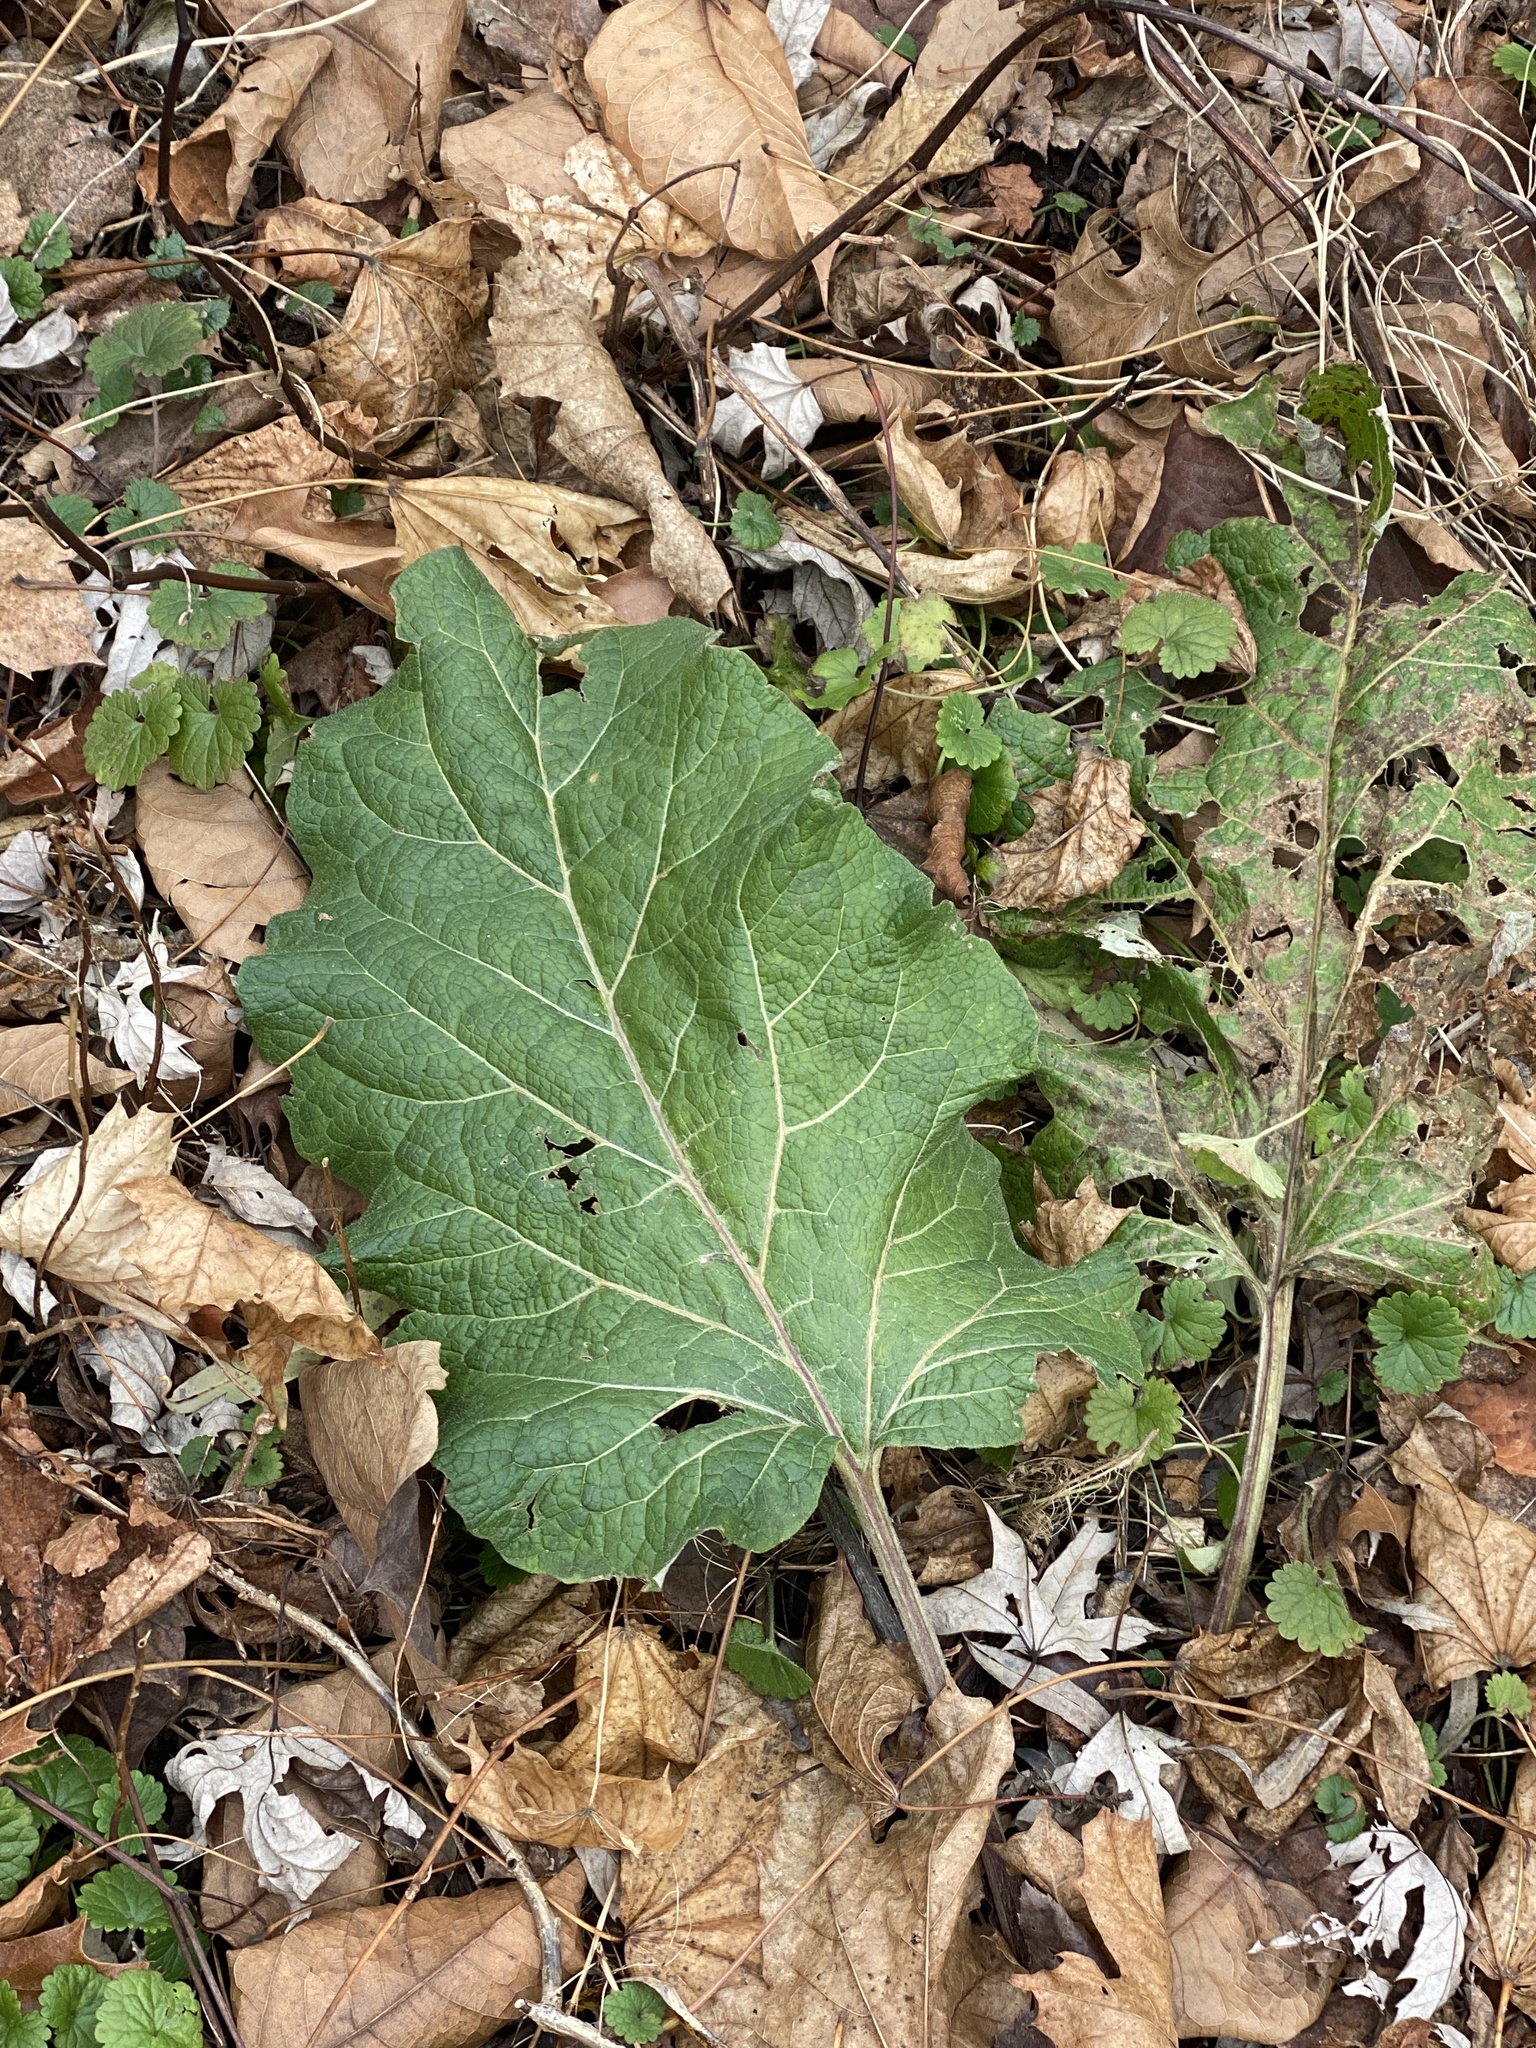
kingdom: Plantae
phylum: Tracheophyta
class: Magnoliopsida
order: Asterales
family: Asteraceae
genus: Arctium
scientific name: Arctium
